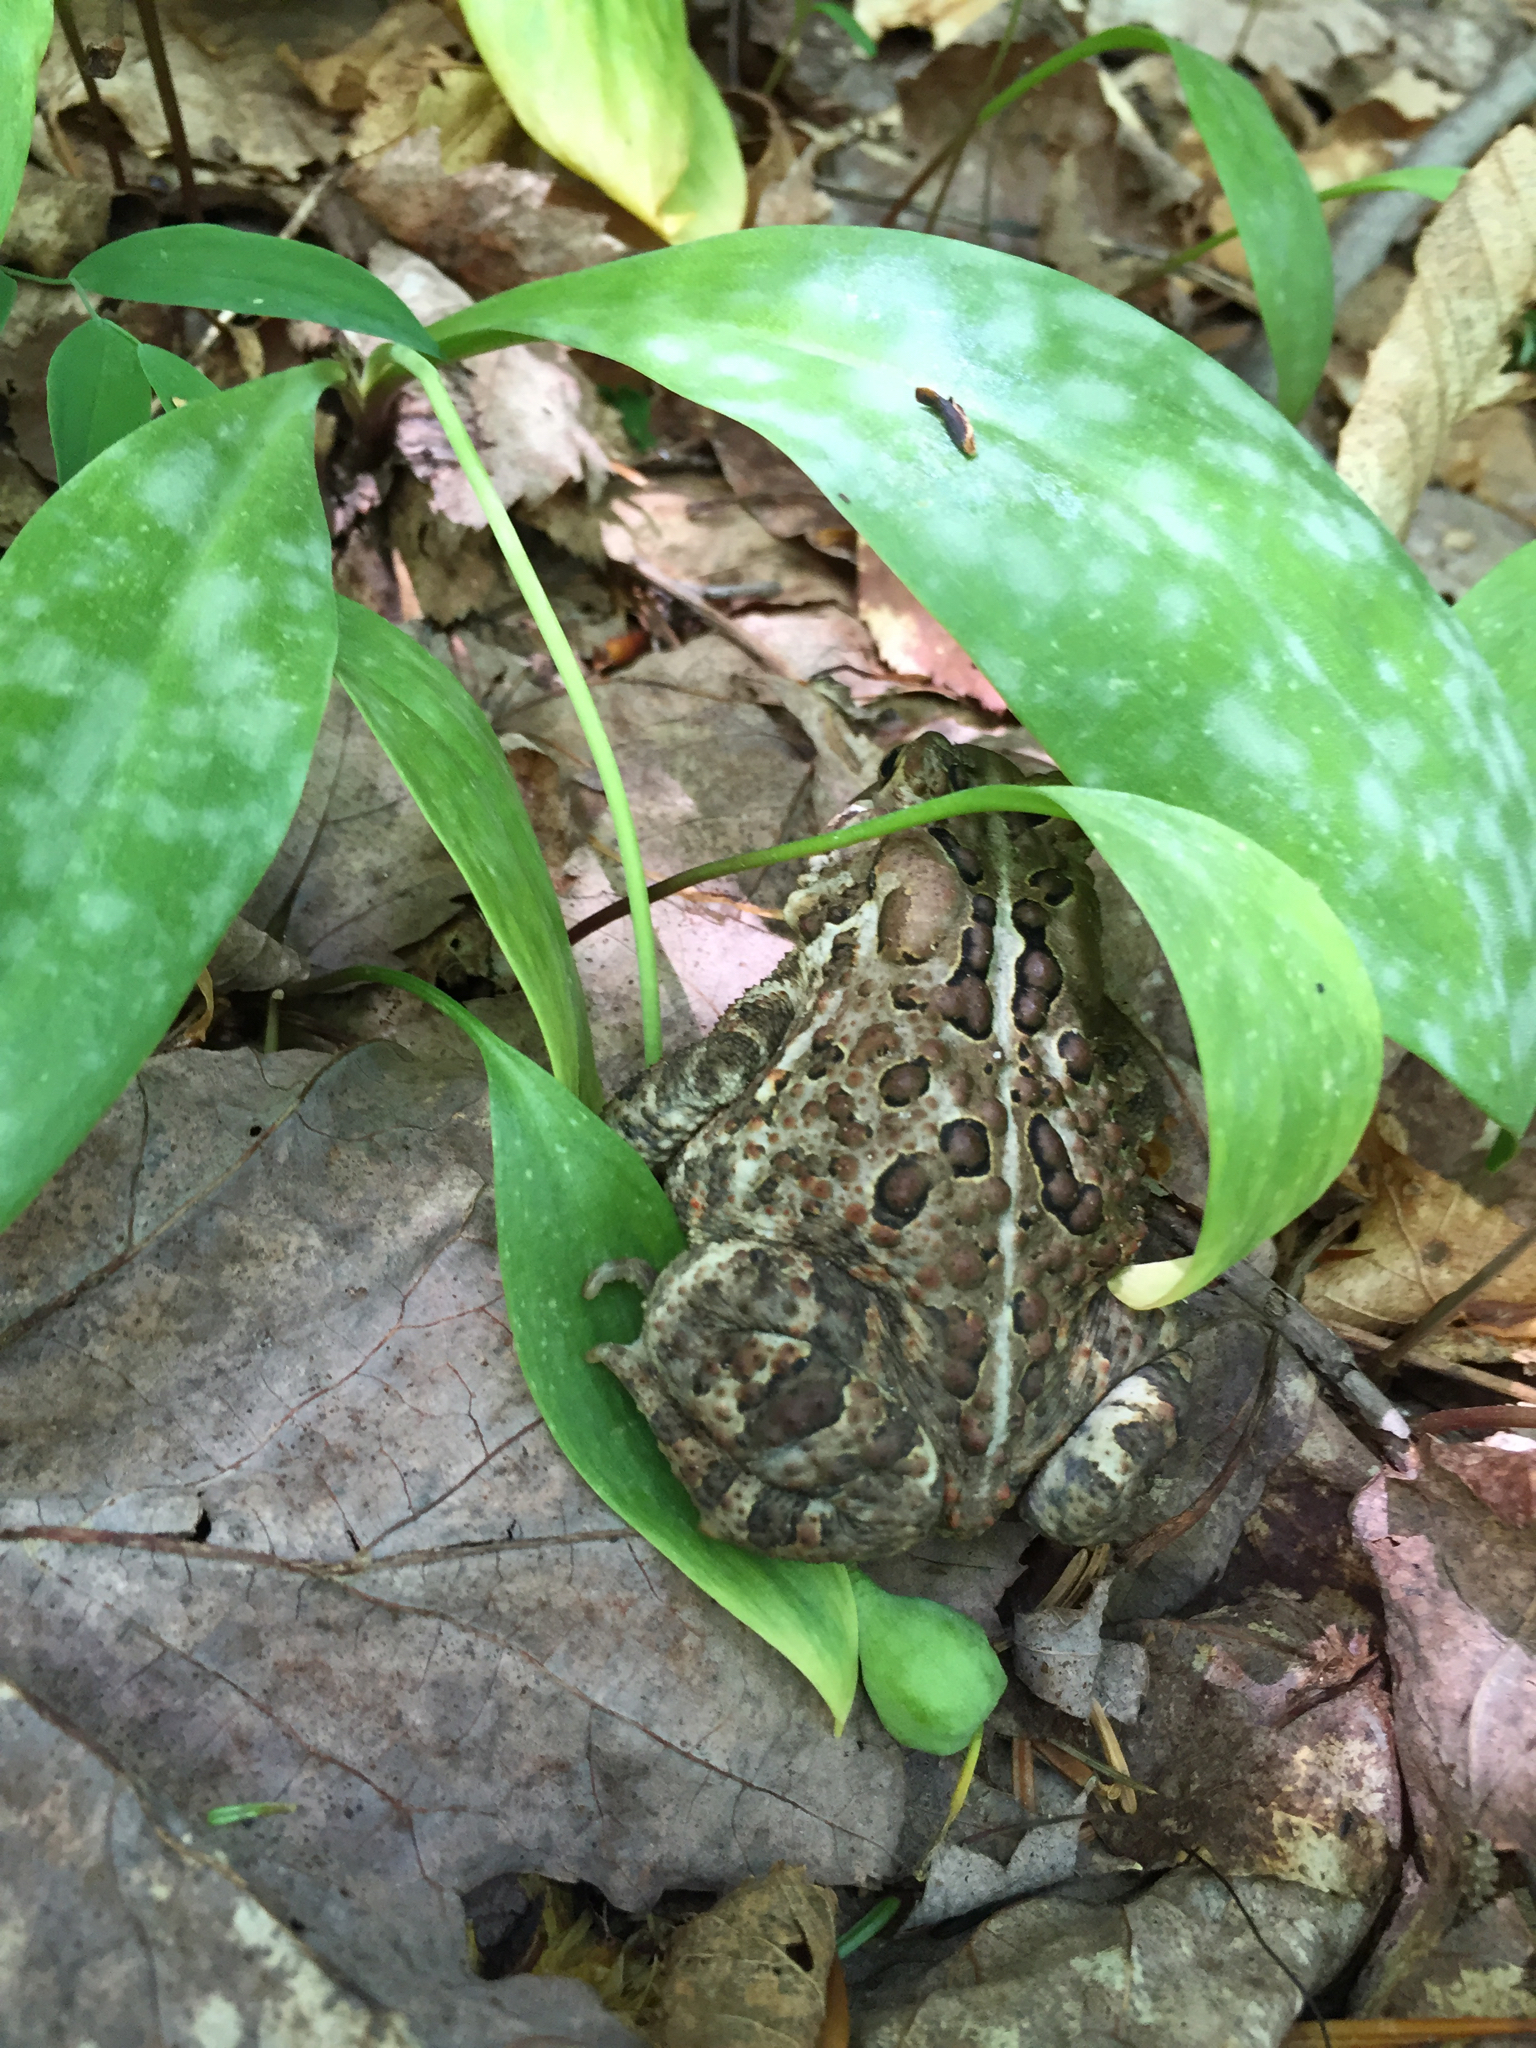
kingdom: Animalia
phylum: Chordata
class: Amphibia
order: Anura
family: Bufonidae
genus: Anaxyrus
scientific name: Anaxyrus americanus
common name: American toad
